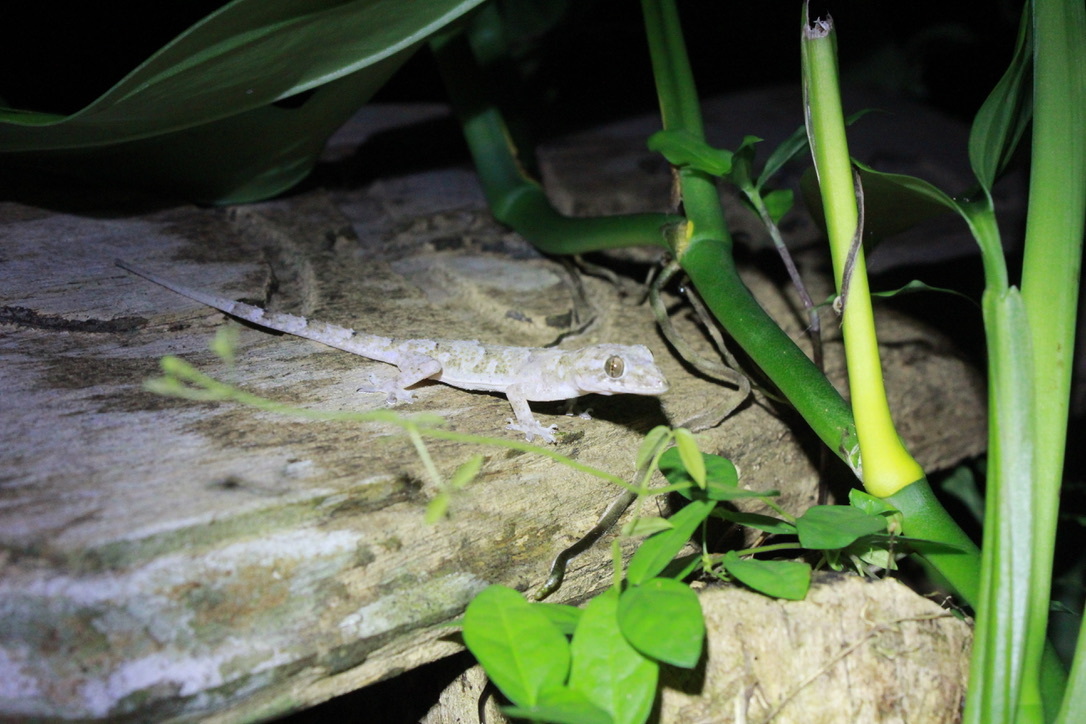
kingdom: Animalia
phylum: Chordata
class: Squamata
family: Gekkonidae
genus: Hemidactylus
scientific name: Hemidactylus mabouia
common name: House gecko
